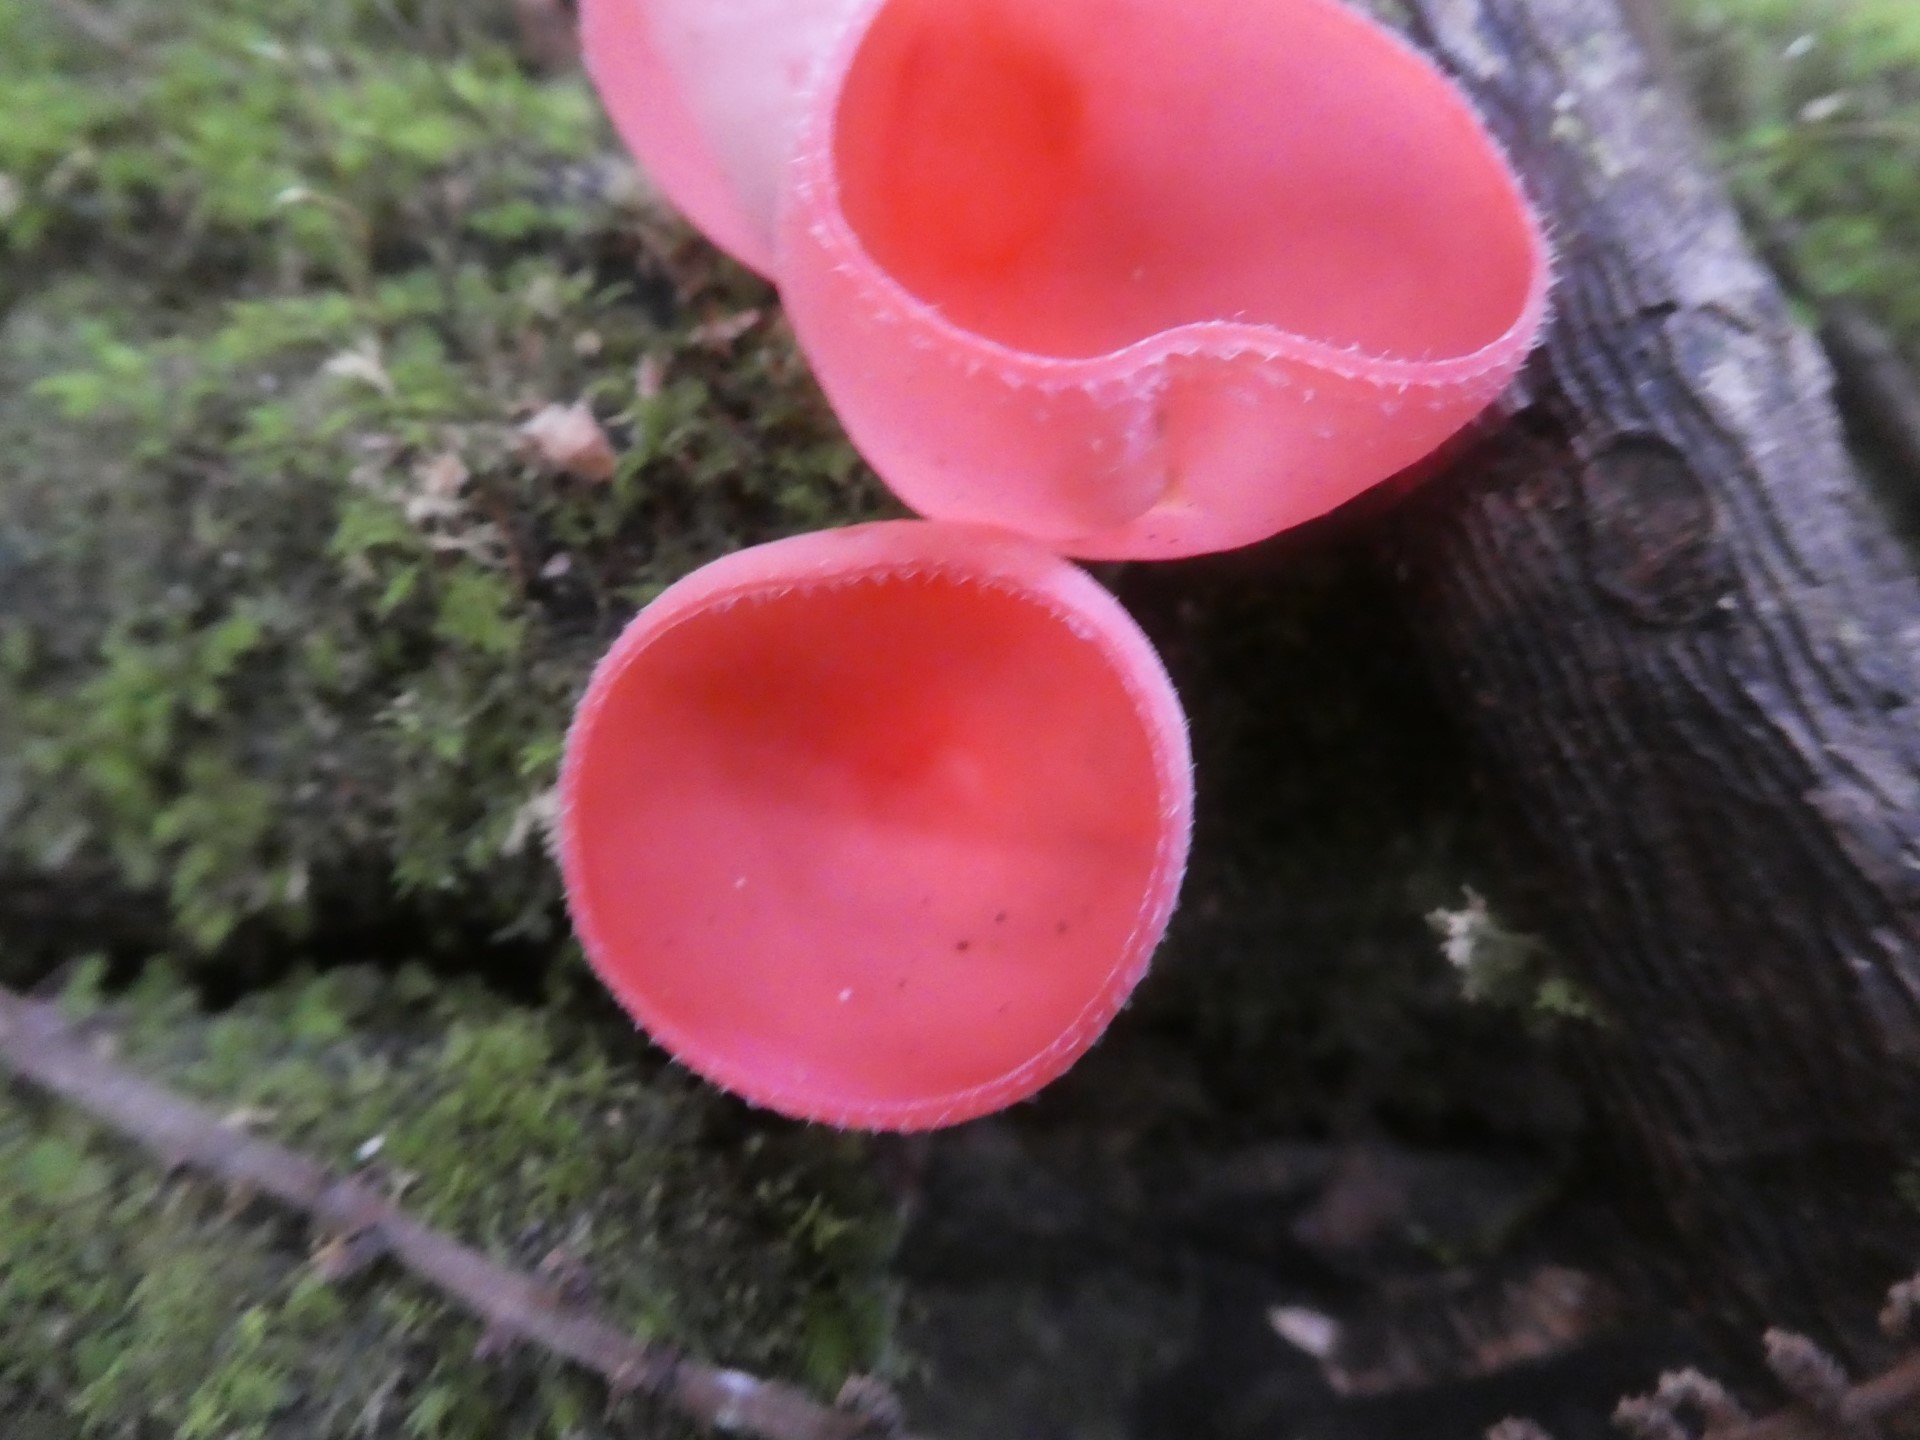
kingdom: Fungi
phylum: Ascomycota
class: Pezizomycetes
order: Pezizales
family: Sarcoscyphaceae
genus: Cookeina
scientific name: Cookeina speciosa
